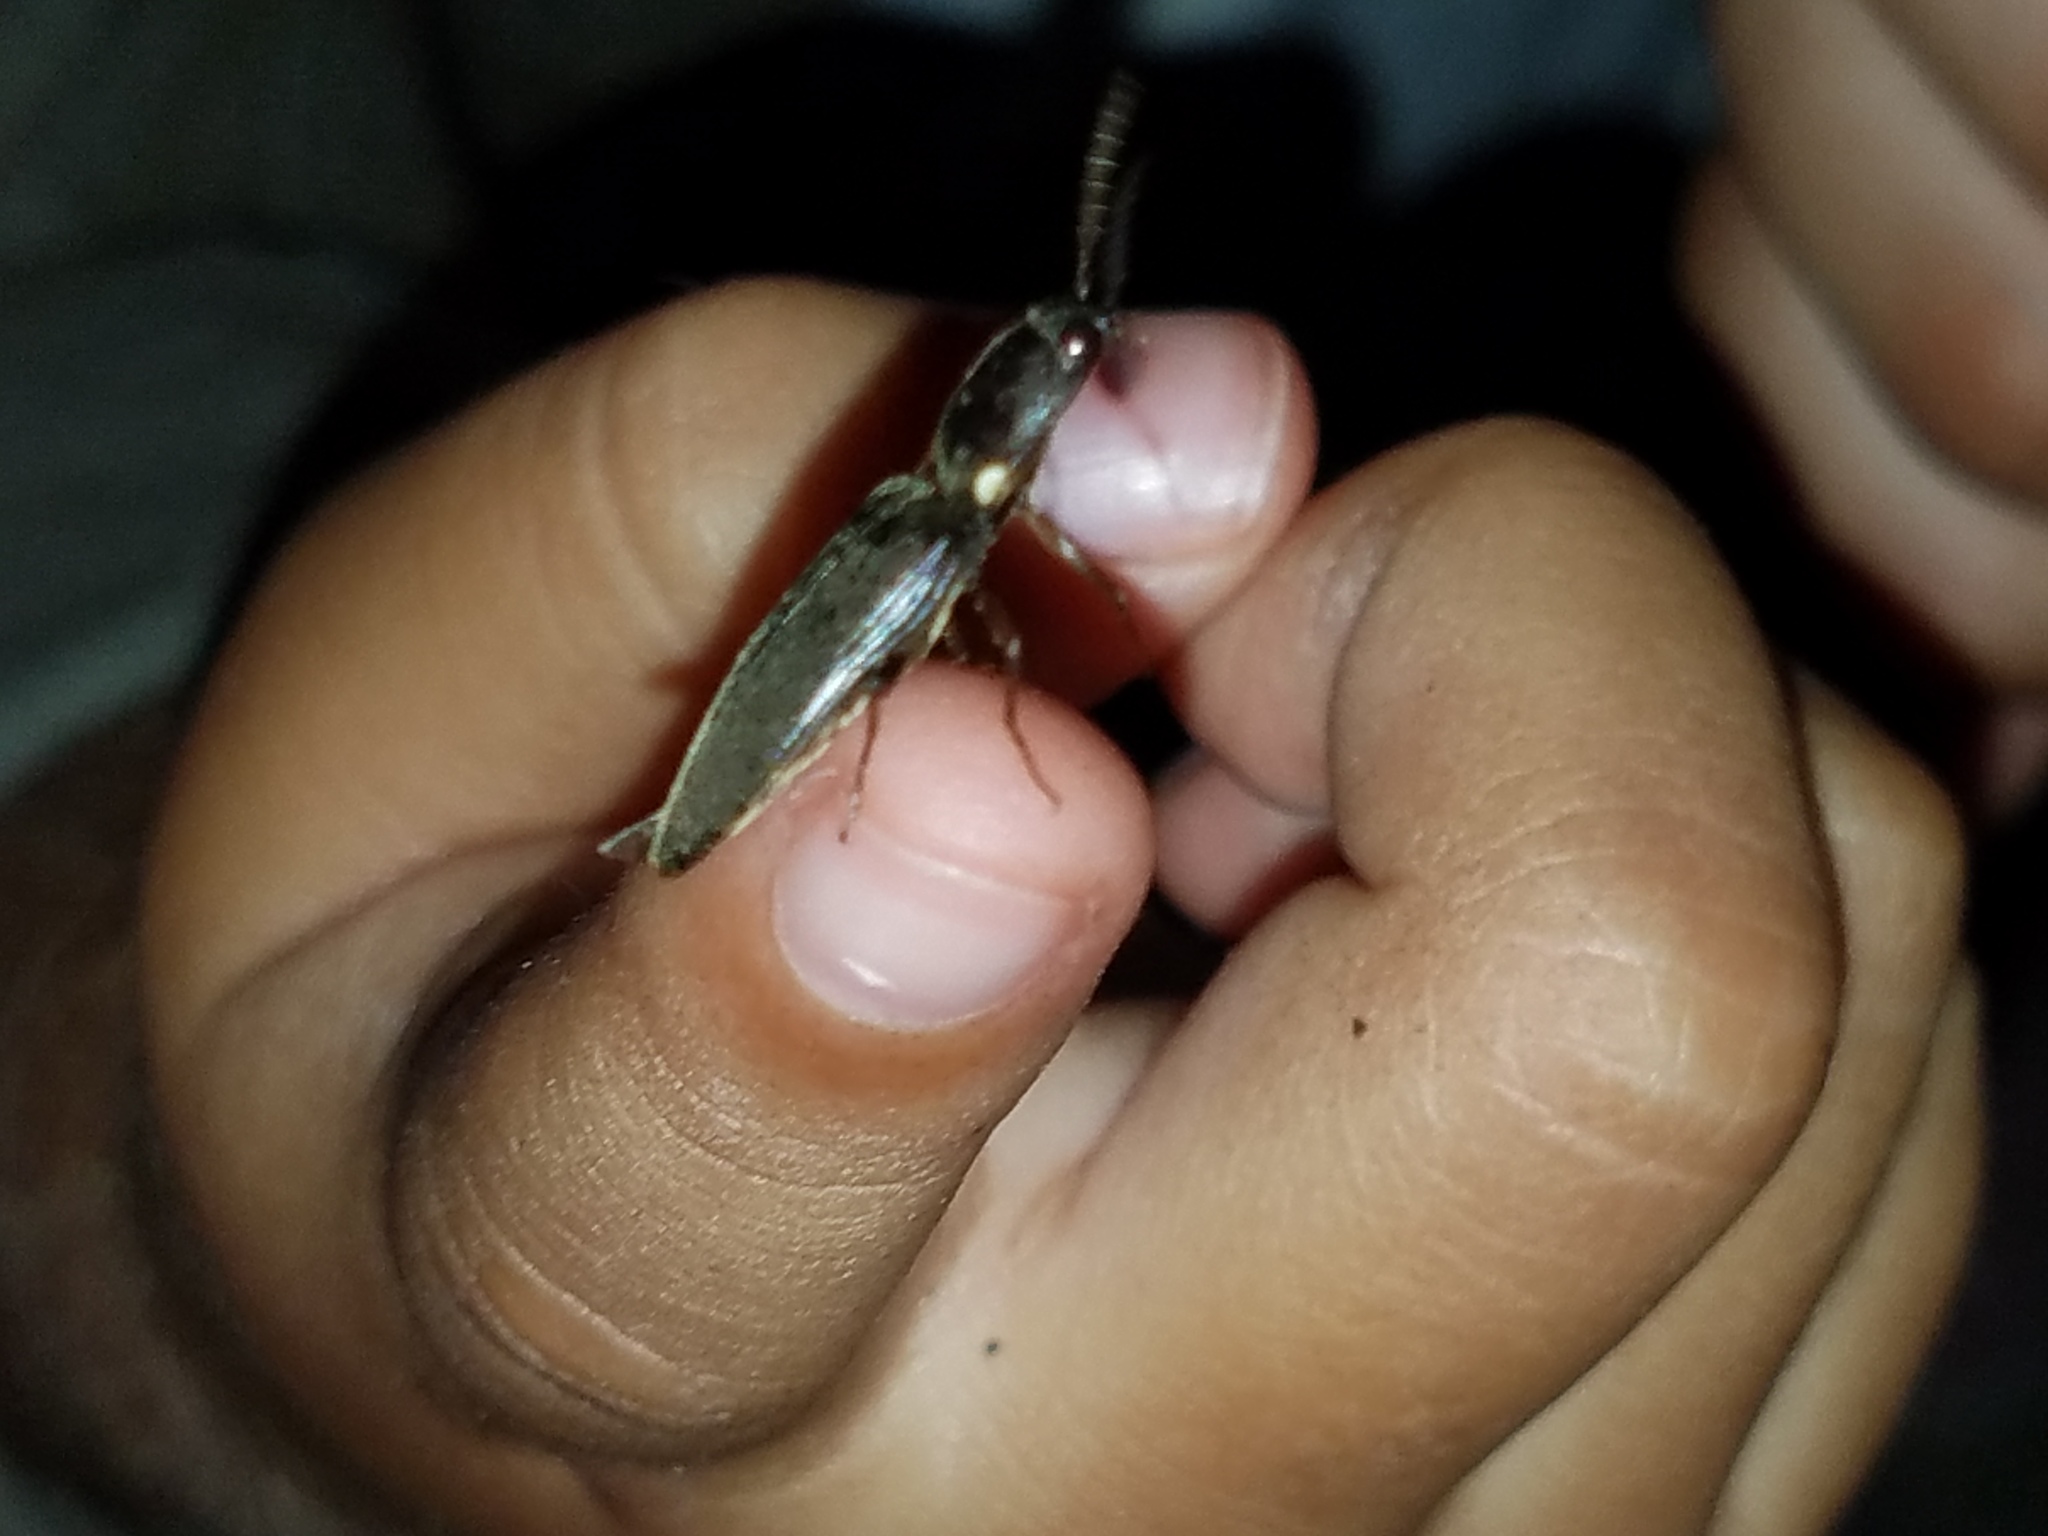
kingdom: Animalia
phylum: Arthropoda
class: Insecta
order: Coleoptera
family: Elateridae
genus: Deilelater
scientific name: Deilelater
